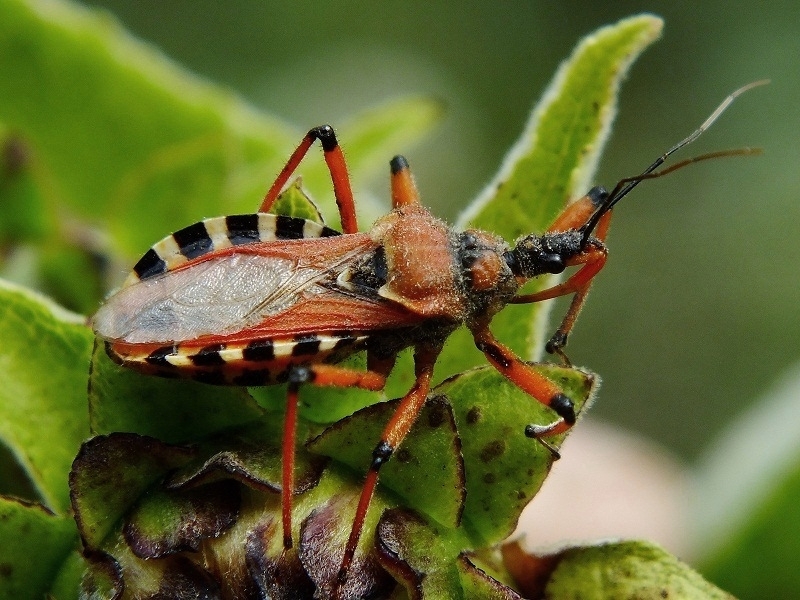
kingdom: Animalia
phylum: Arthropoda
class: Insecta
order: Hemiptera
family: Reduviidae
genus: Rhynocoris
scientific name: Rhynocoris iracundus
